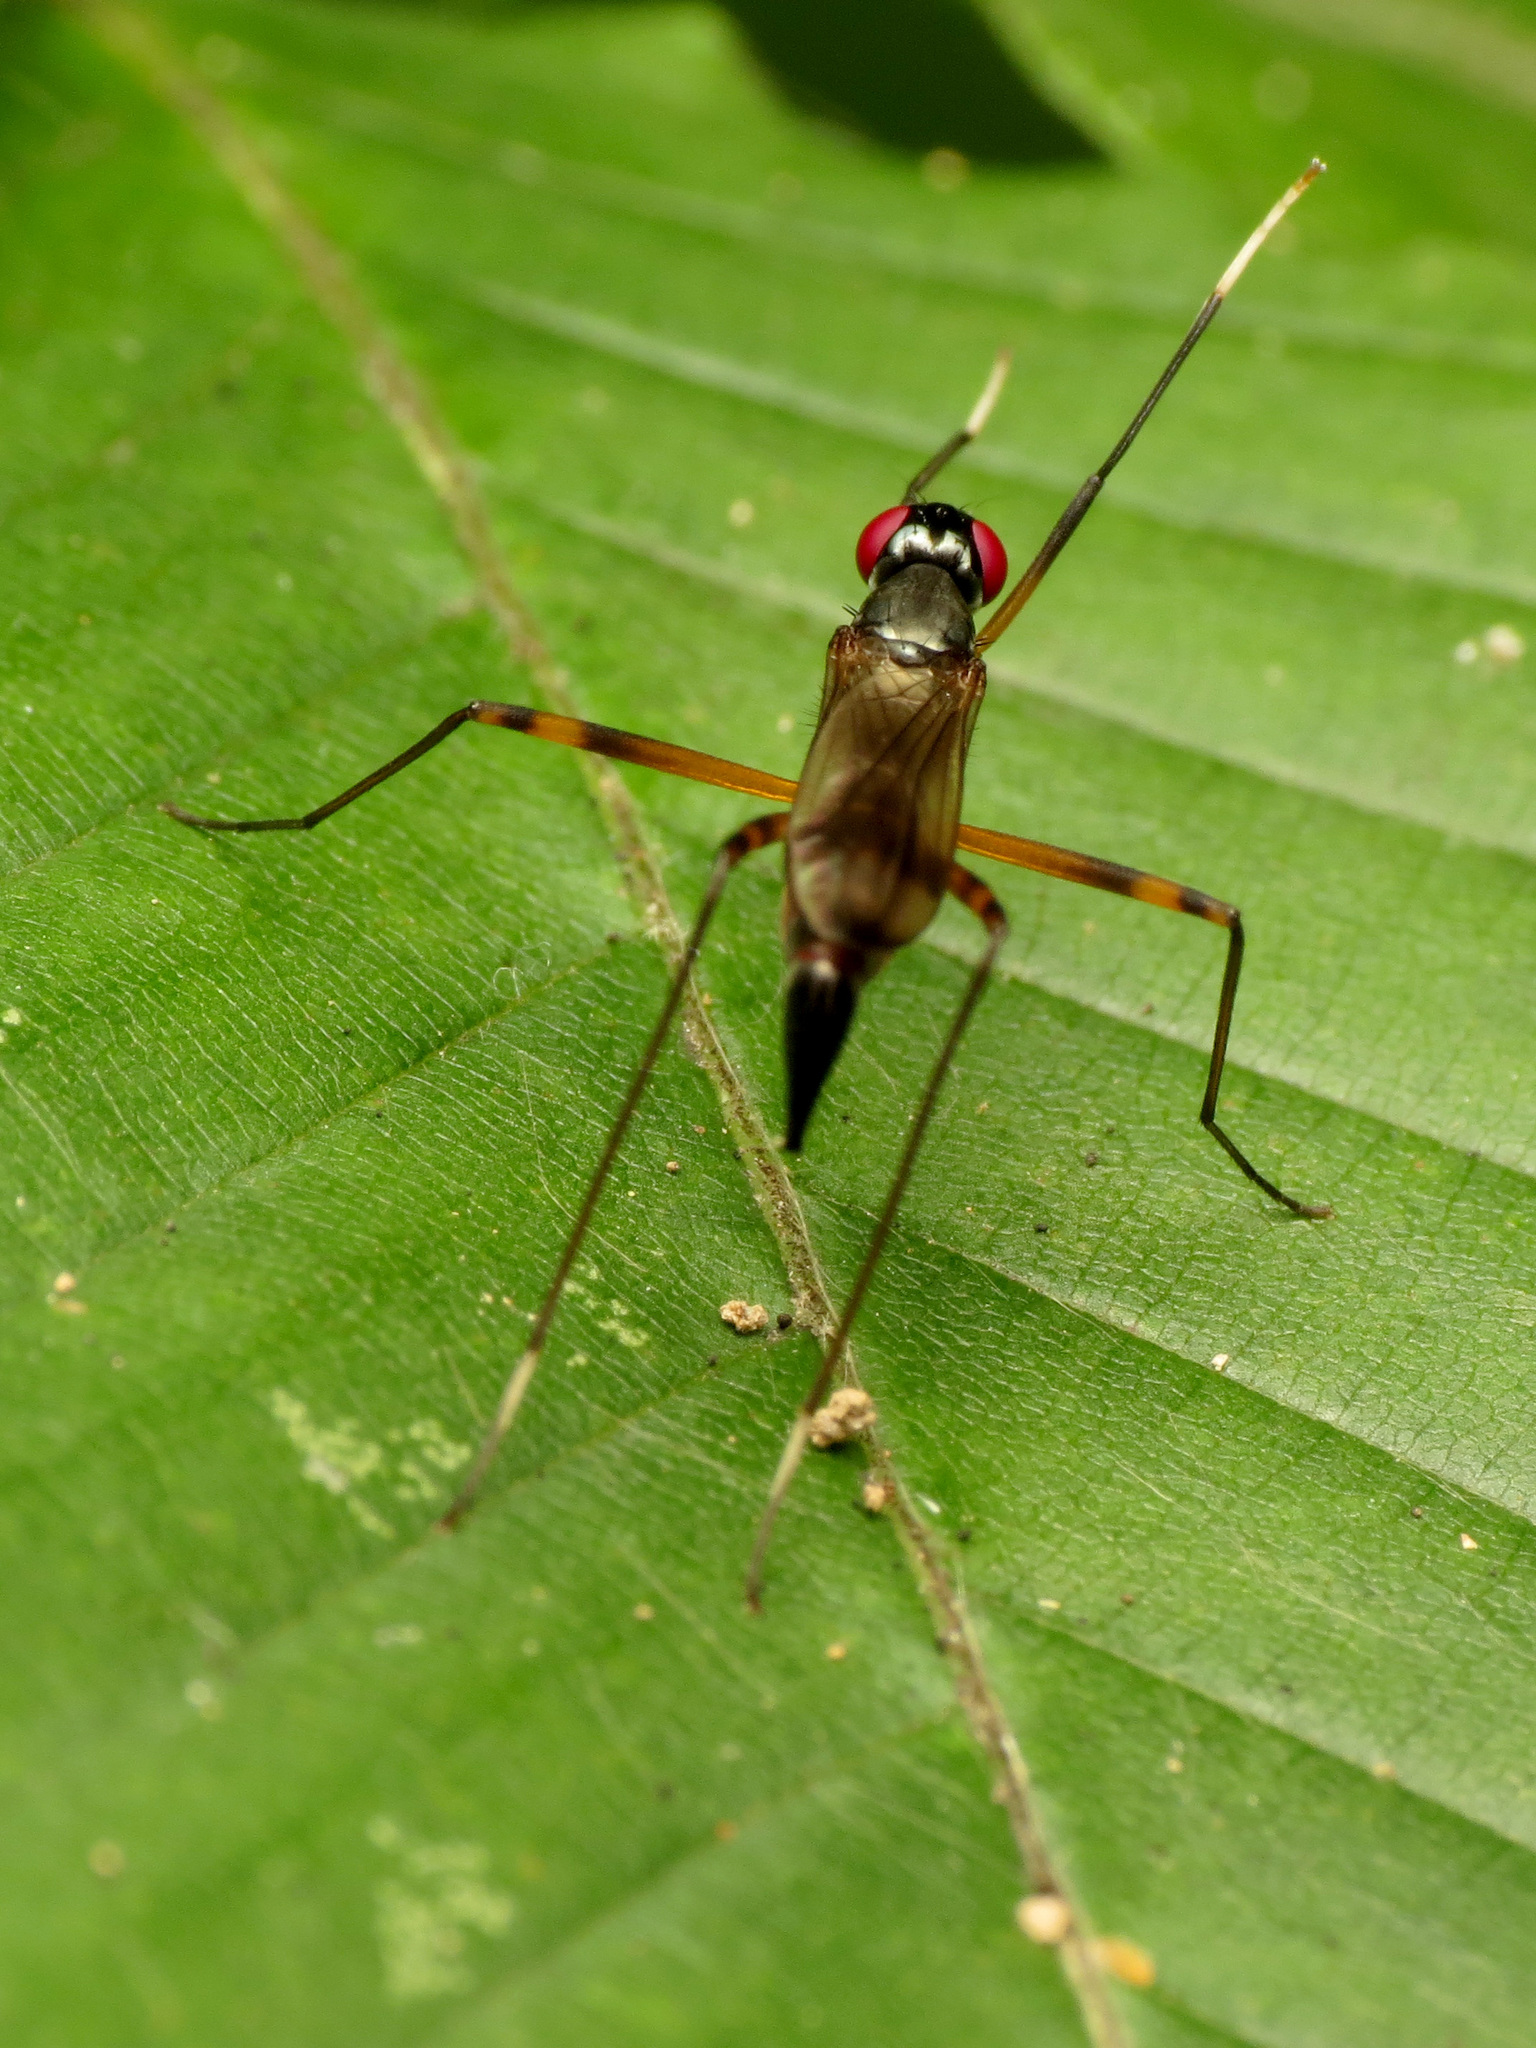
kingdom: Animalia
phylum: Arthropoda
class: Insecta
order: Diptera
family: Micropezidae
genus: Rainieria
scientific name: Rainieria antennaepes
